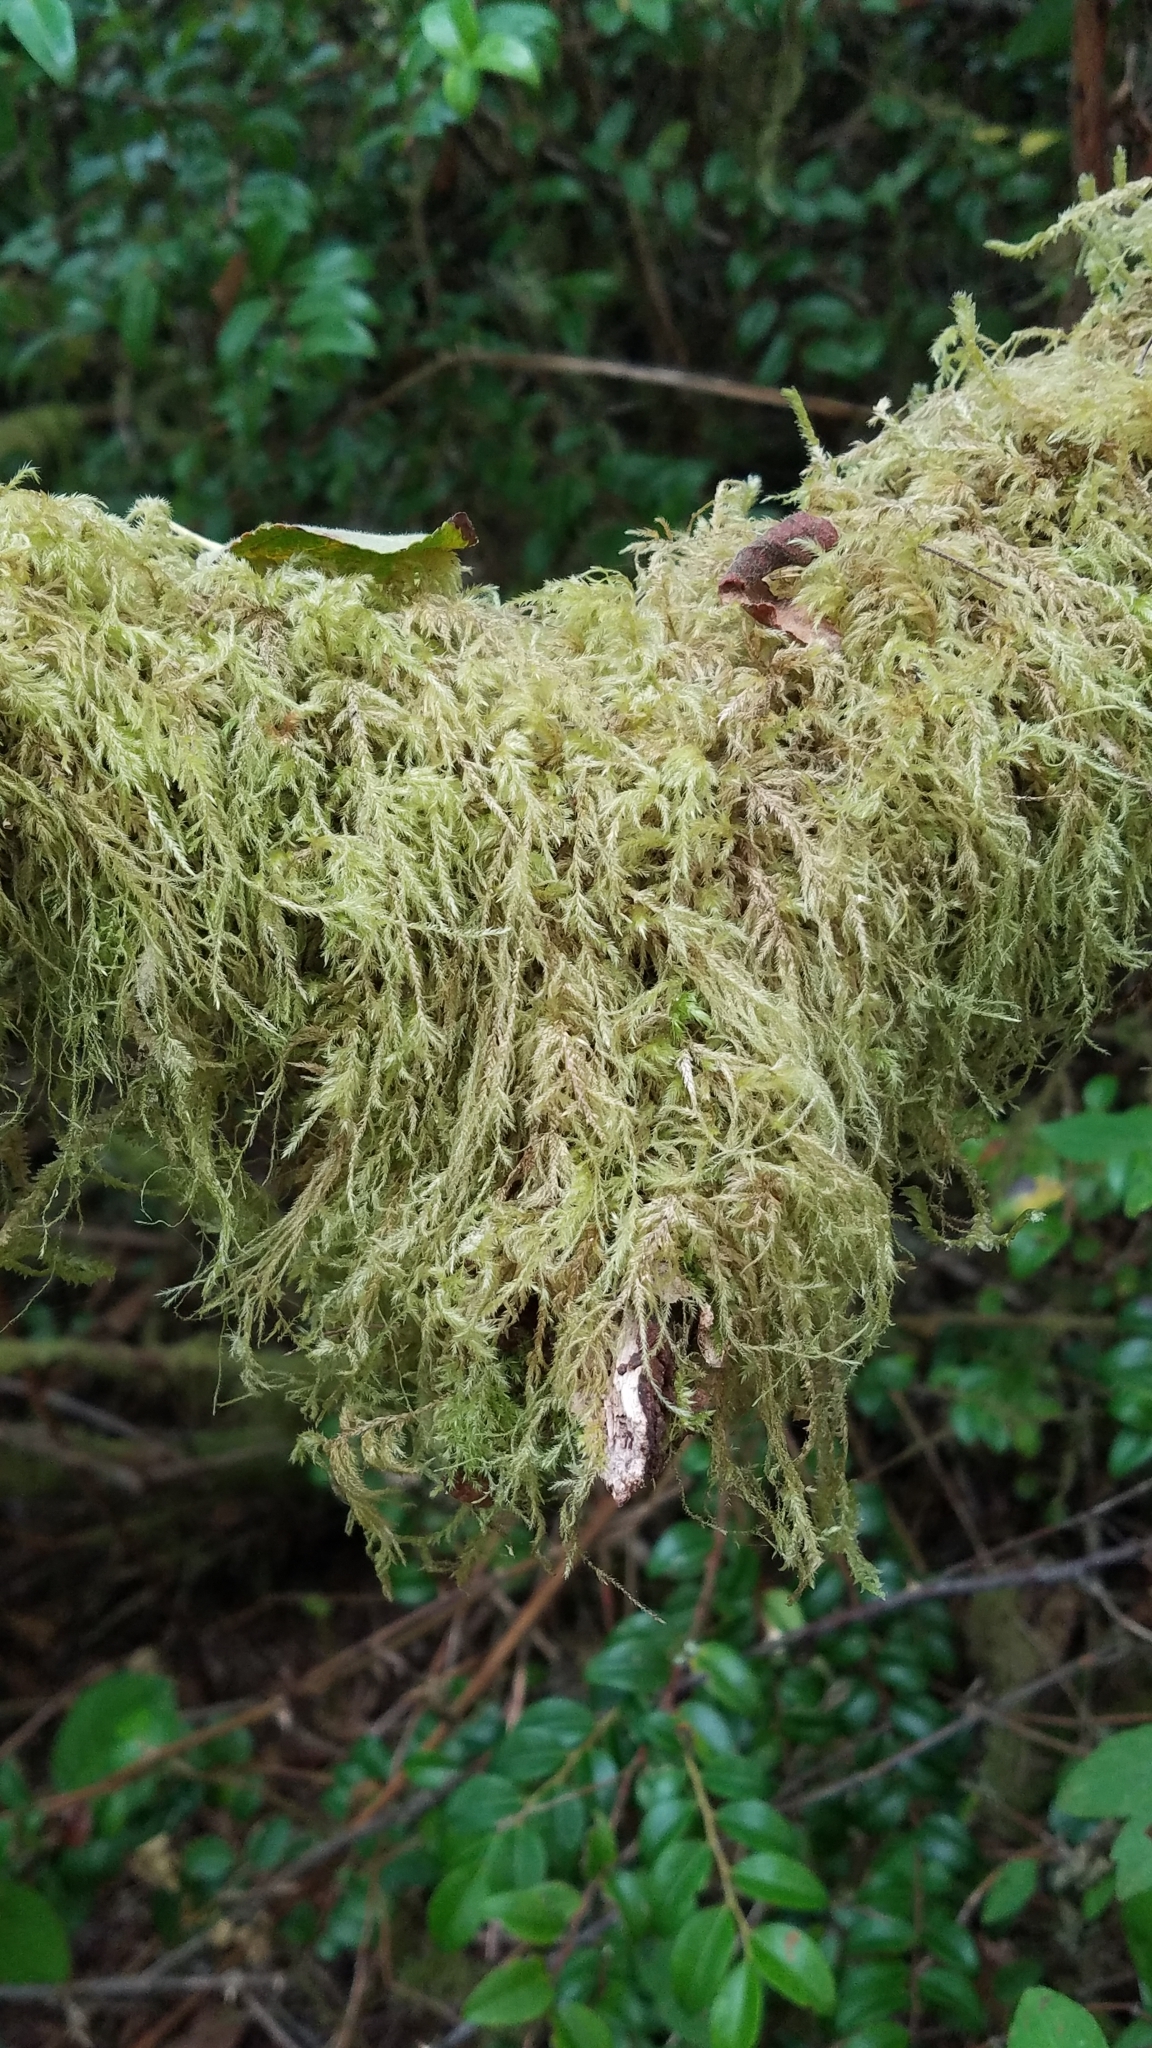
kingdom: Plantae
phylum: Bryophyta
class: Bryopsida
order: Hypnales
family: Lembophyllaceae
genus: Pseudisothecium
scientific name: Pseudisothecium stoloniferum
